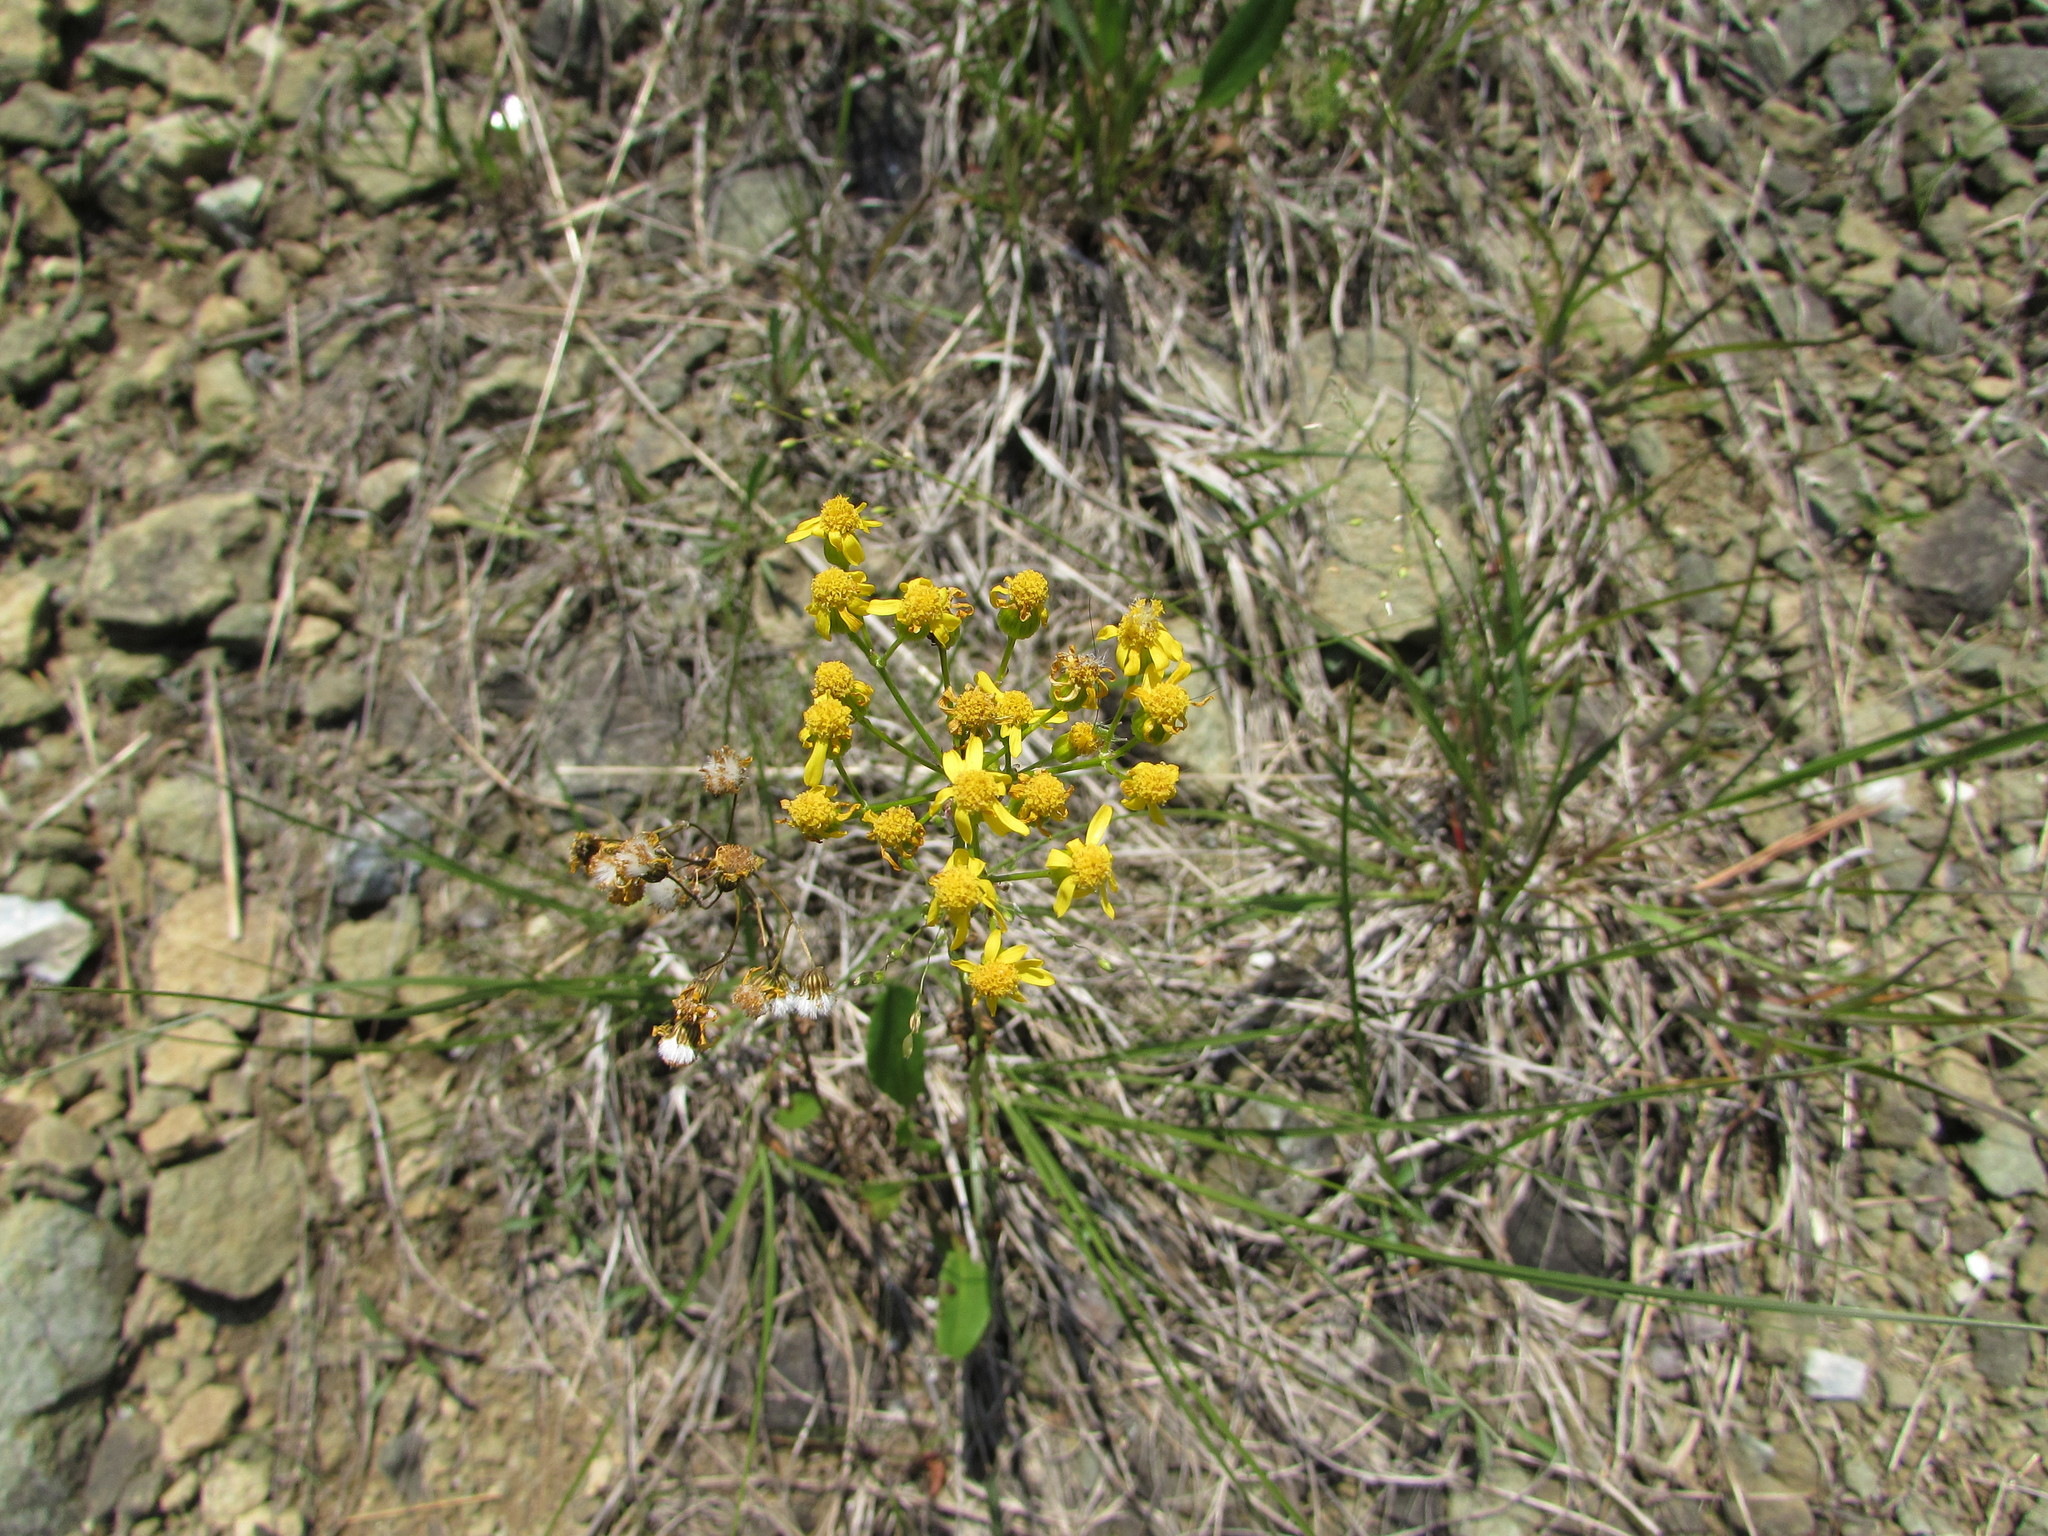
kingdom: Plantae
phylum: Tracheophyta
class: Magnoliopsida
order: Asterales
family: Asteraceae
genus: Packera
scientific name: Packera anonyma
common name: Small ragwort
